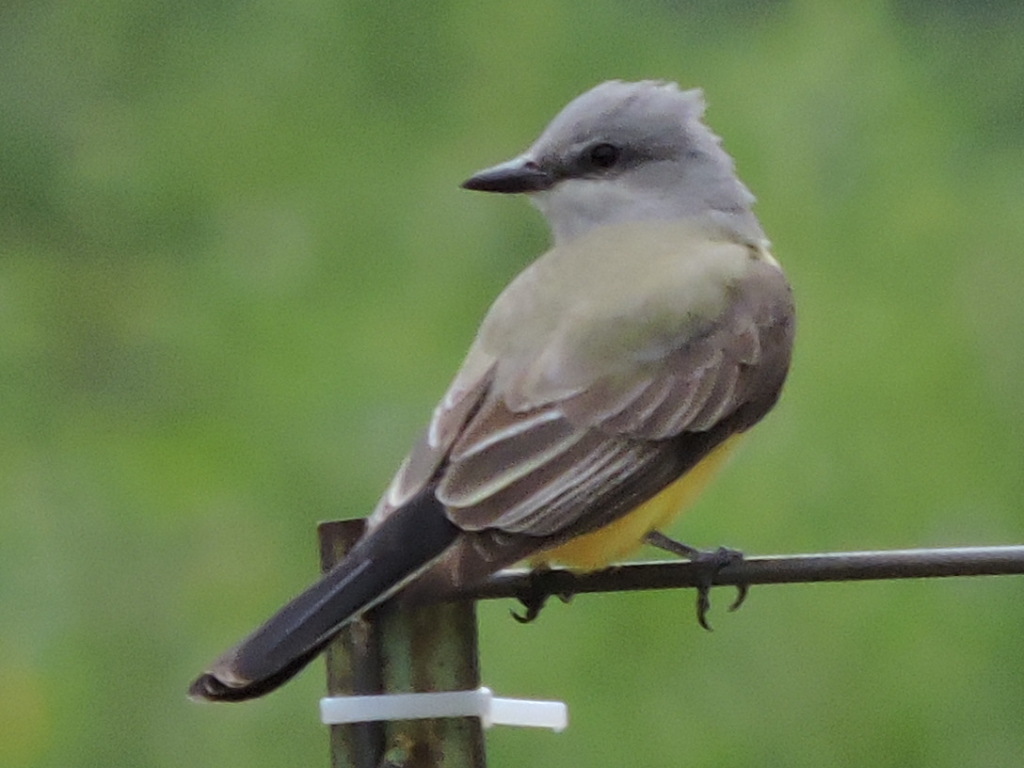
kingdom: Animalia
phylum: Chordata
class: Aves
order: Passeriformes
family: Tyrannidae
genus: Tyrannus
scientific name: Tyrannus verticalis
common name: Western kingbird
